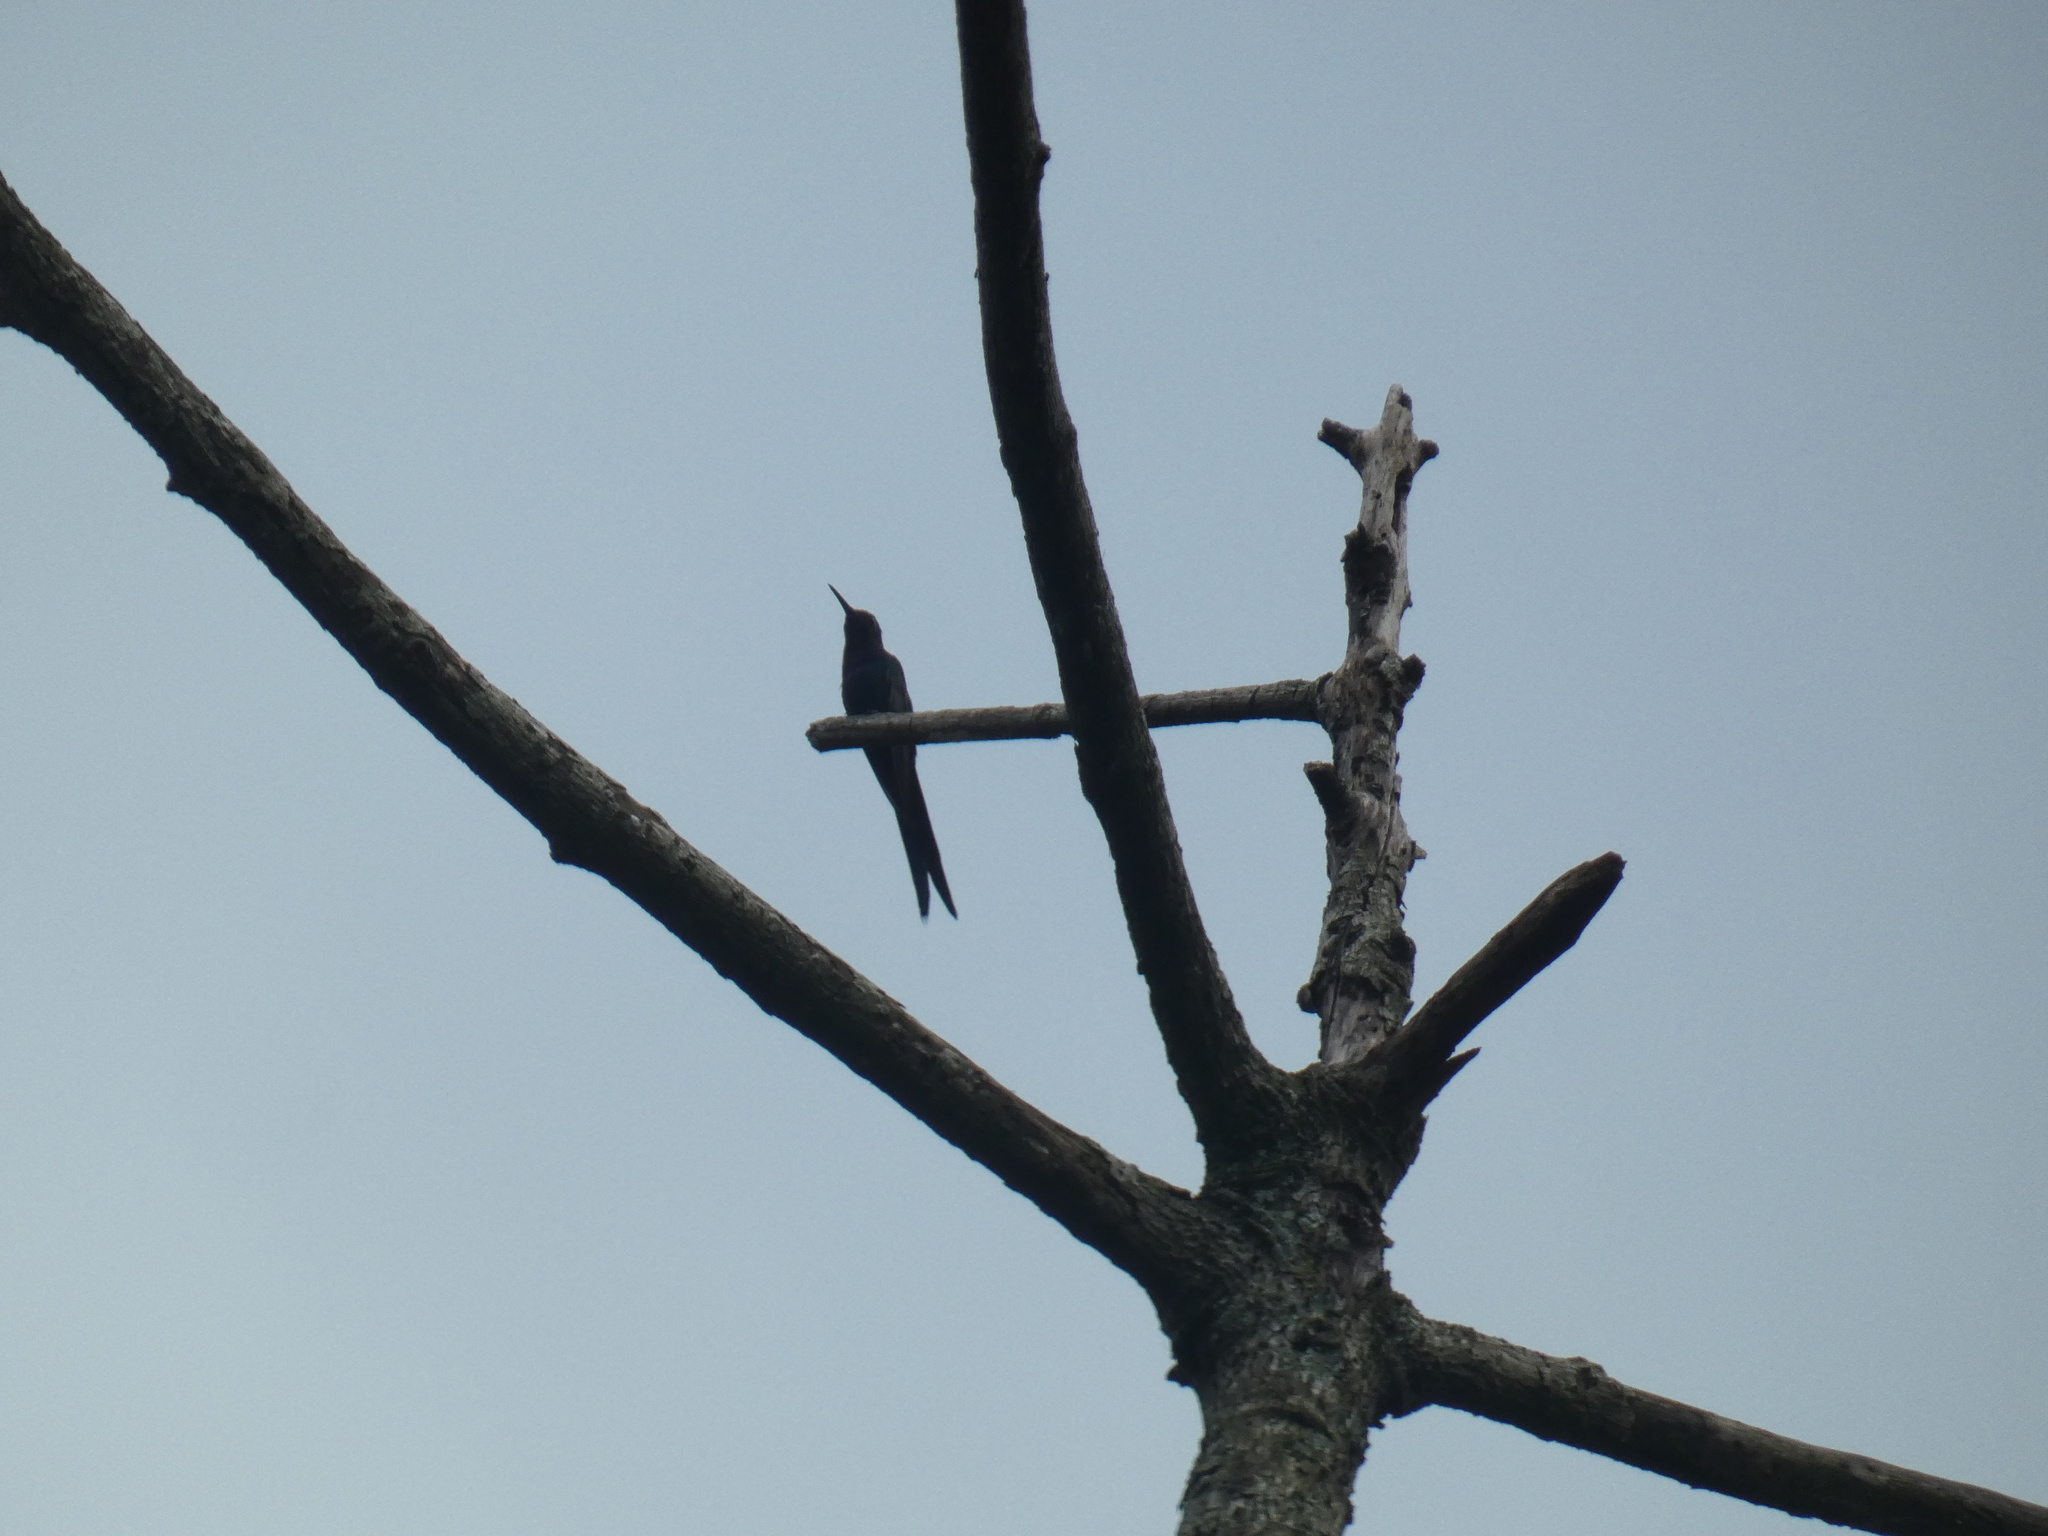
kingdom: Animalia
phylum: Chordata
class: Aves
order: Apodiformes
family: Trochilidae
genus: Eupetomena
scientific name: Eupetomena macroura
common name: Swallow-tailed hummingbird
